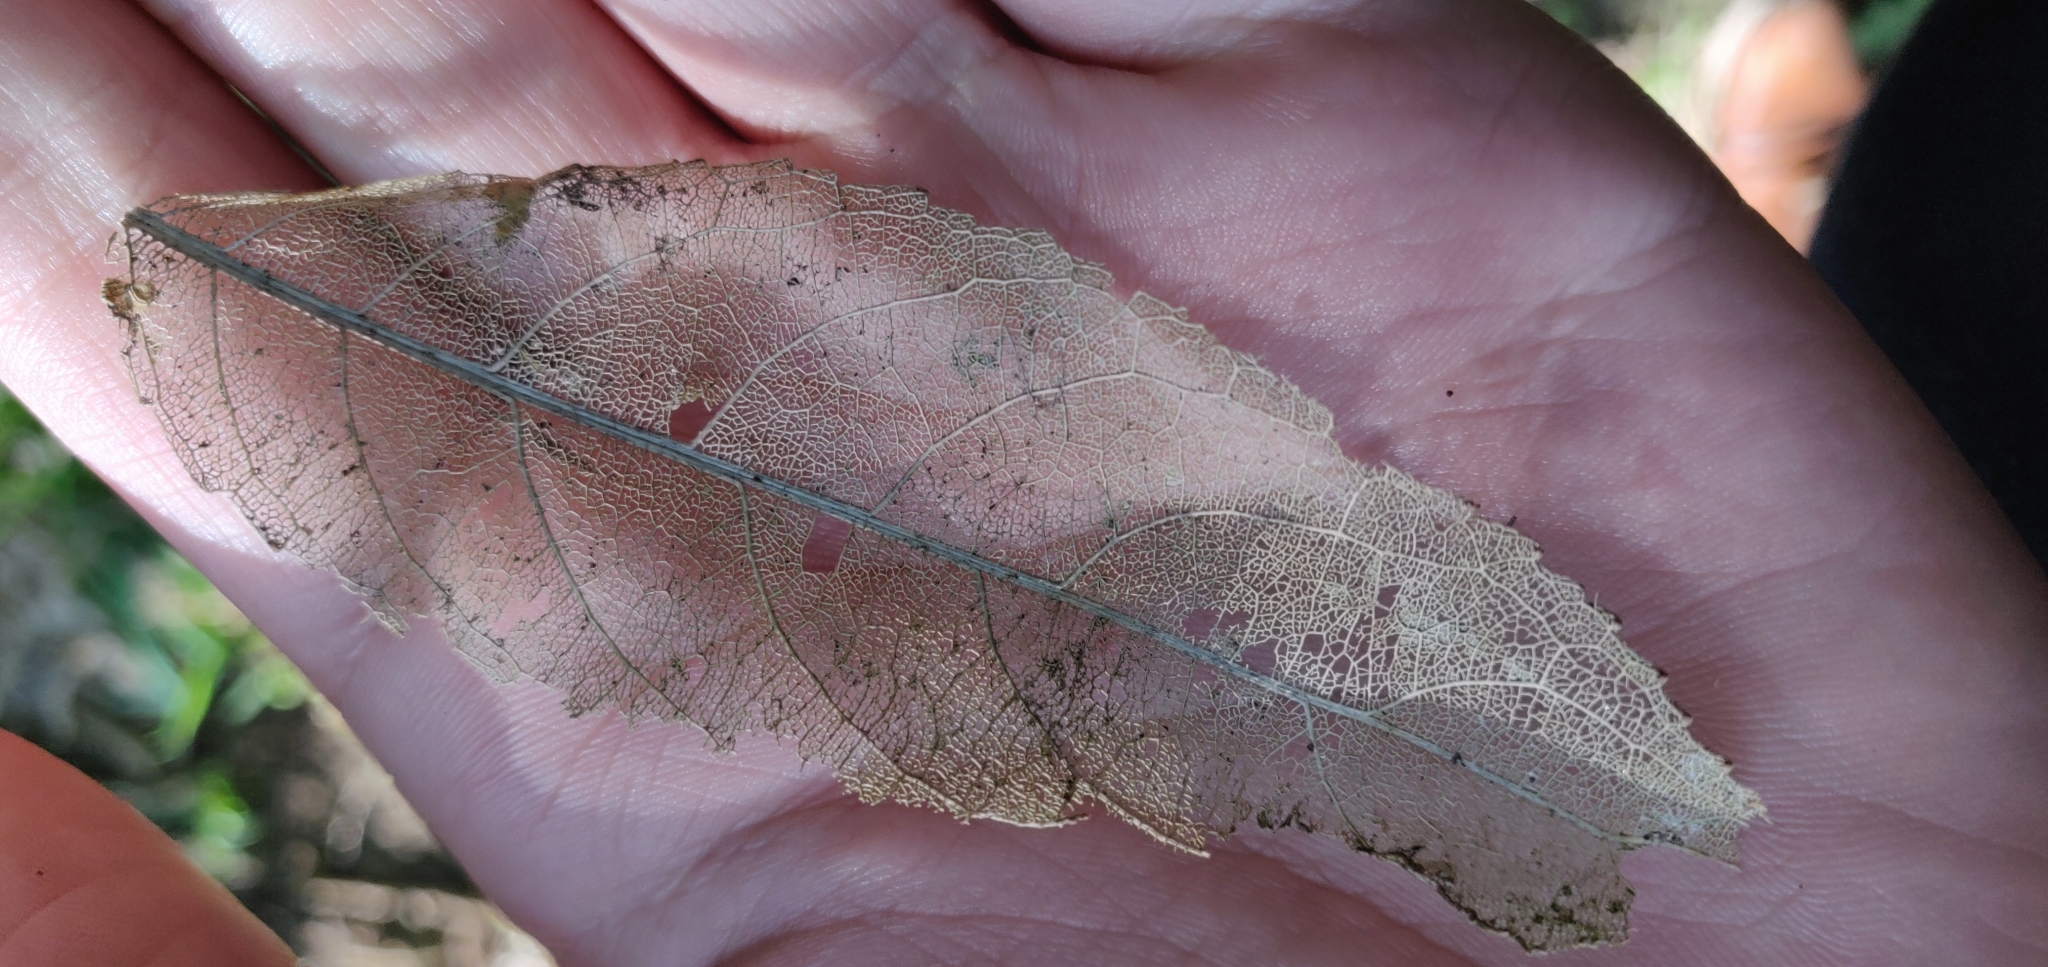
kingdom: Plantae
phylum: Tracheophyta
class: Magnoliopsida
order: Malpighiales
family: Violaceae
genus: Melicytus
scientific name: Melicytus ramiflorus
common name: Mahoe
